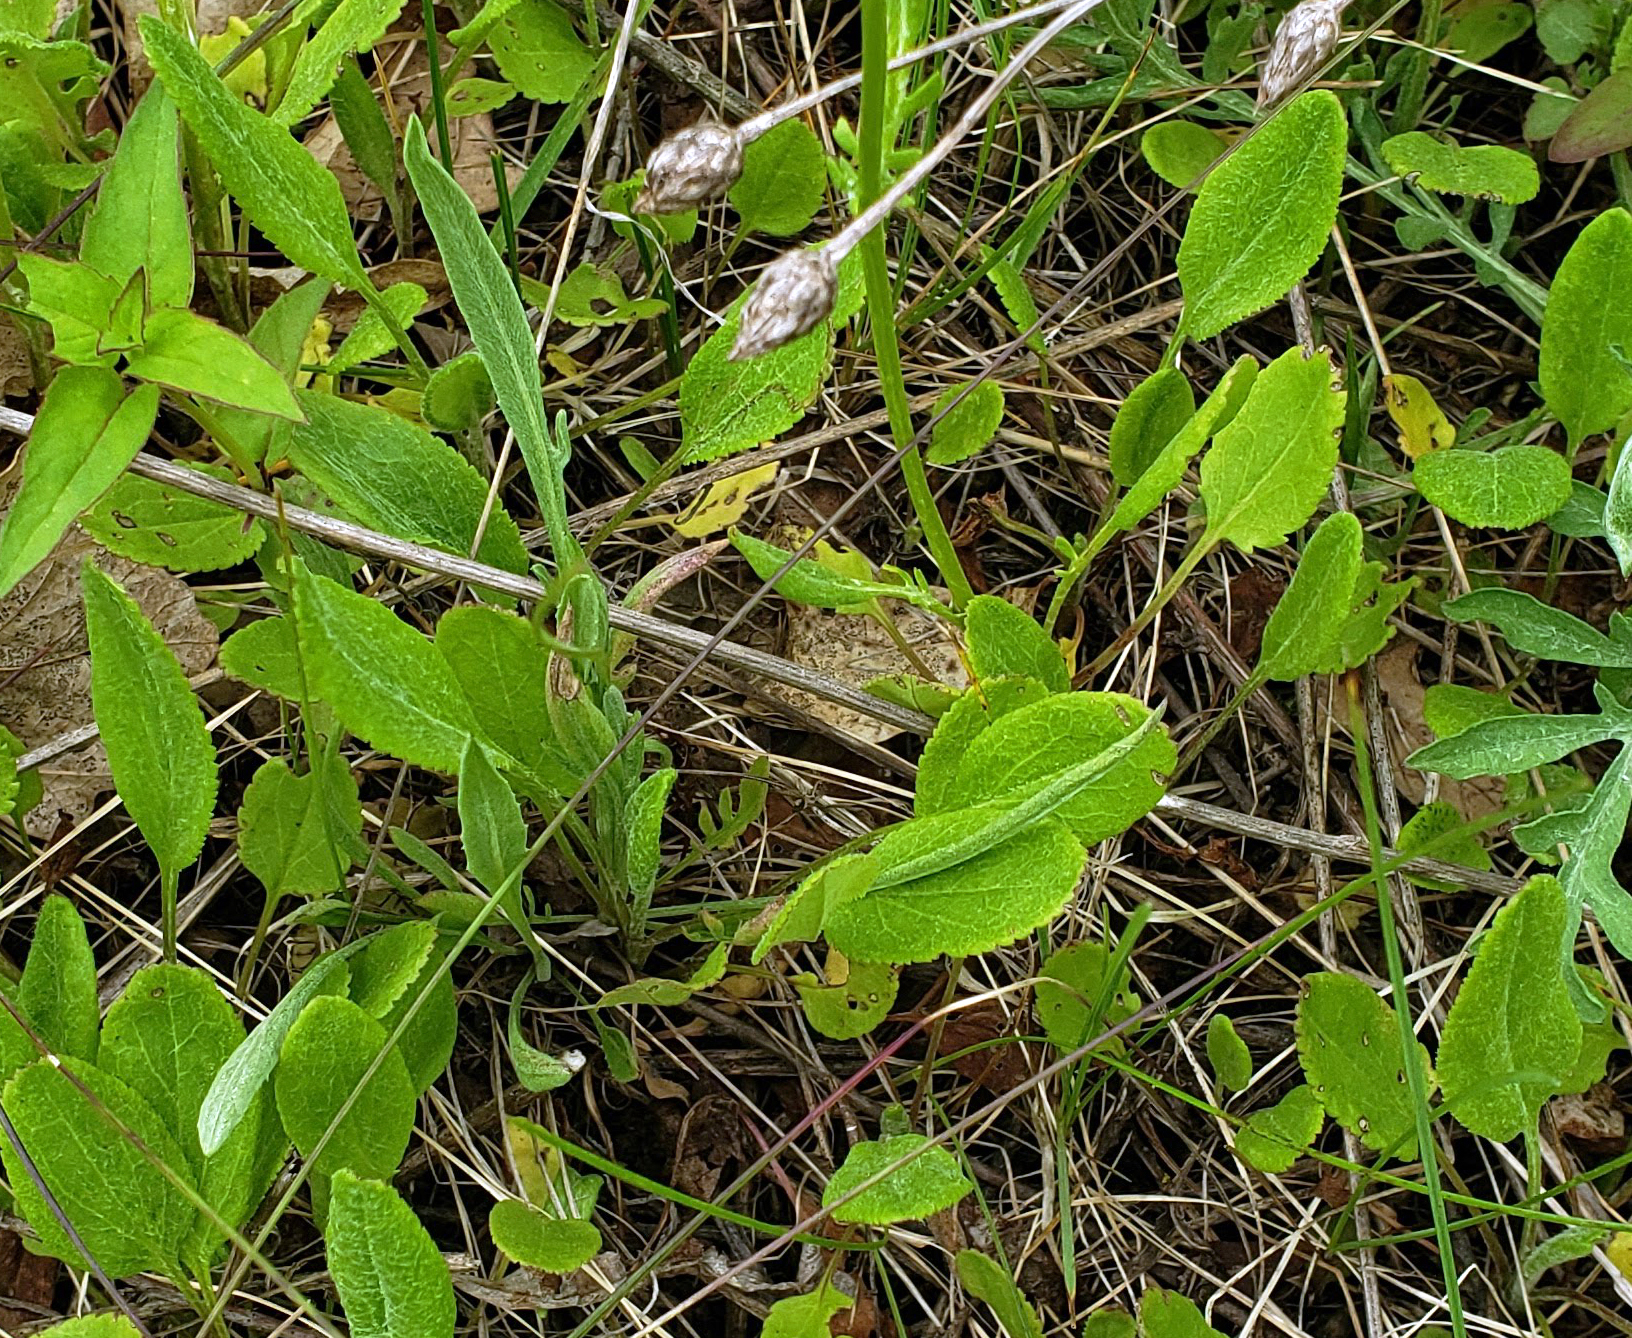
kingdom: Plantae
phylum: Tracheophyta
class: Magnoliopsida
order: Asterales
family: Asteraceae
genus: Packera
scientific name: Packera paupercula
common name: Balsam groundsel
